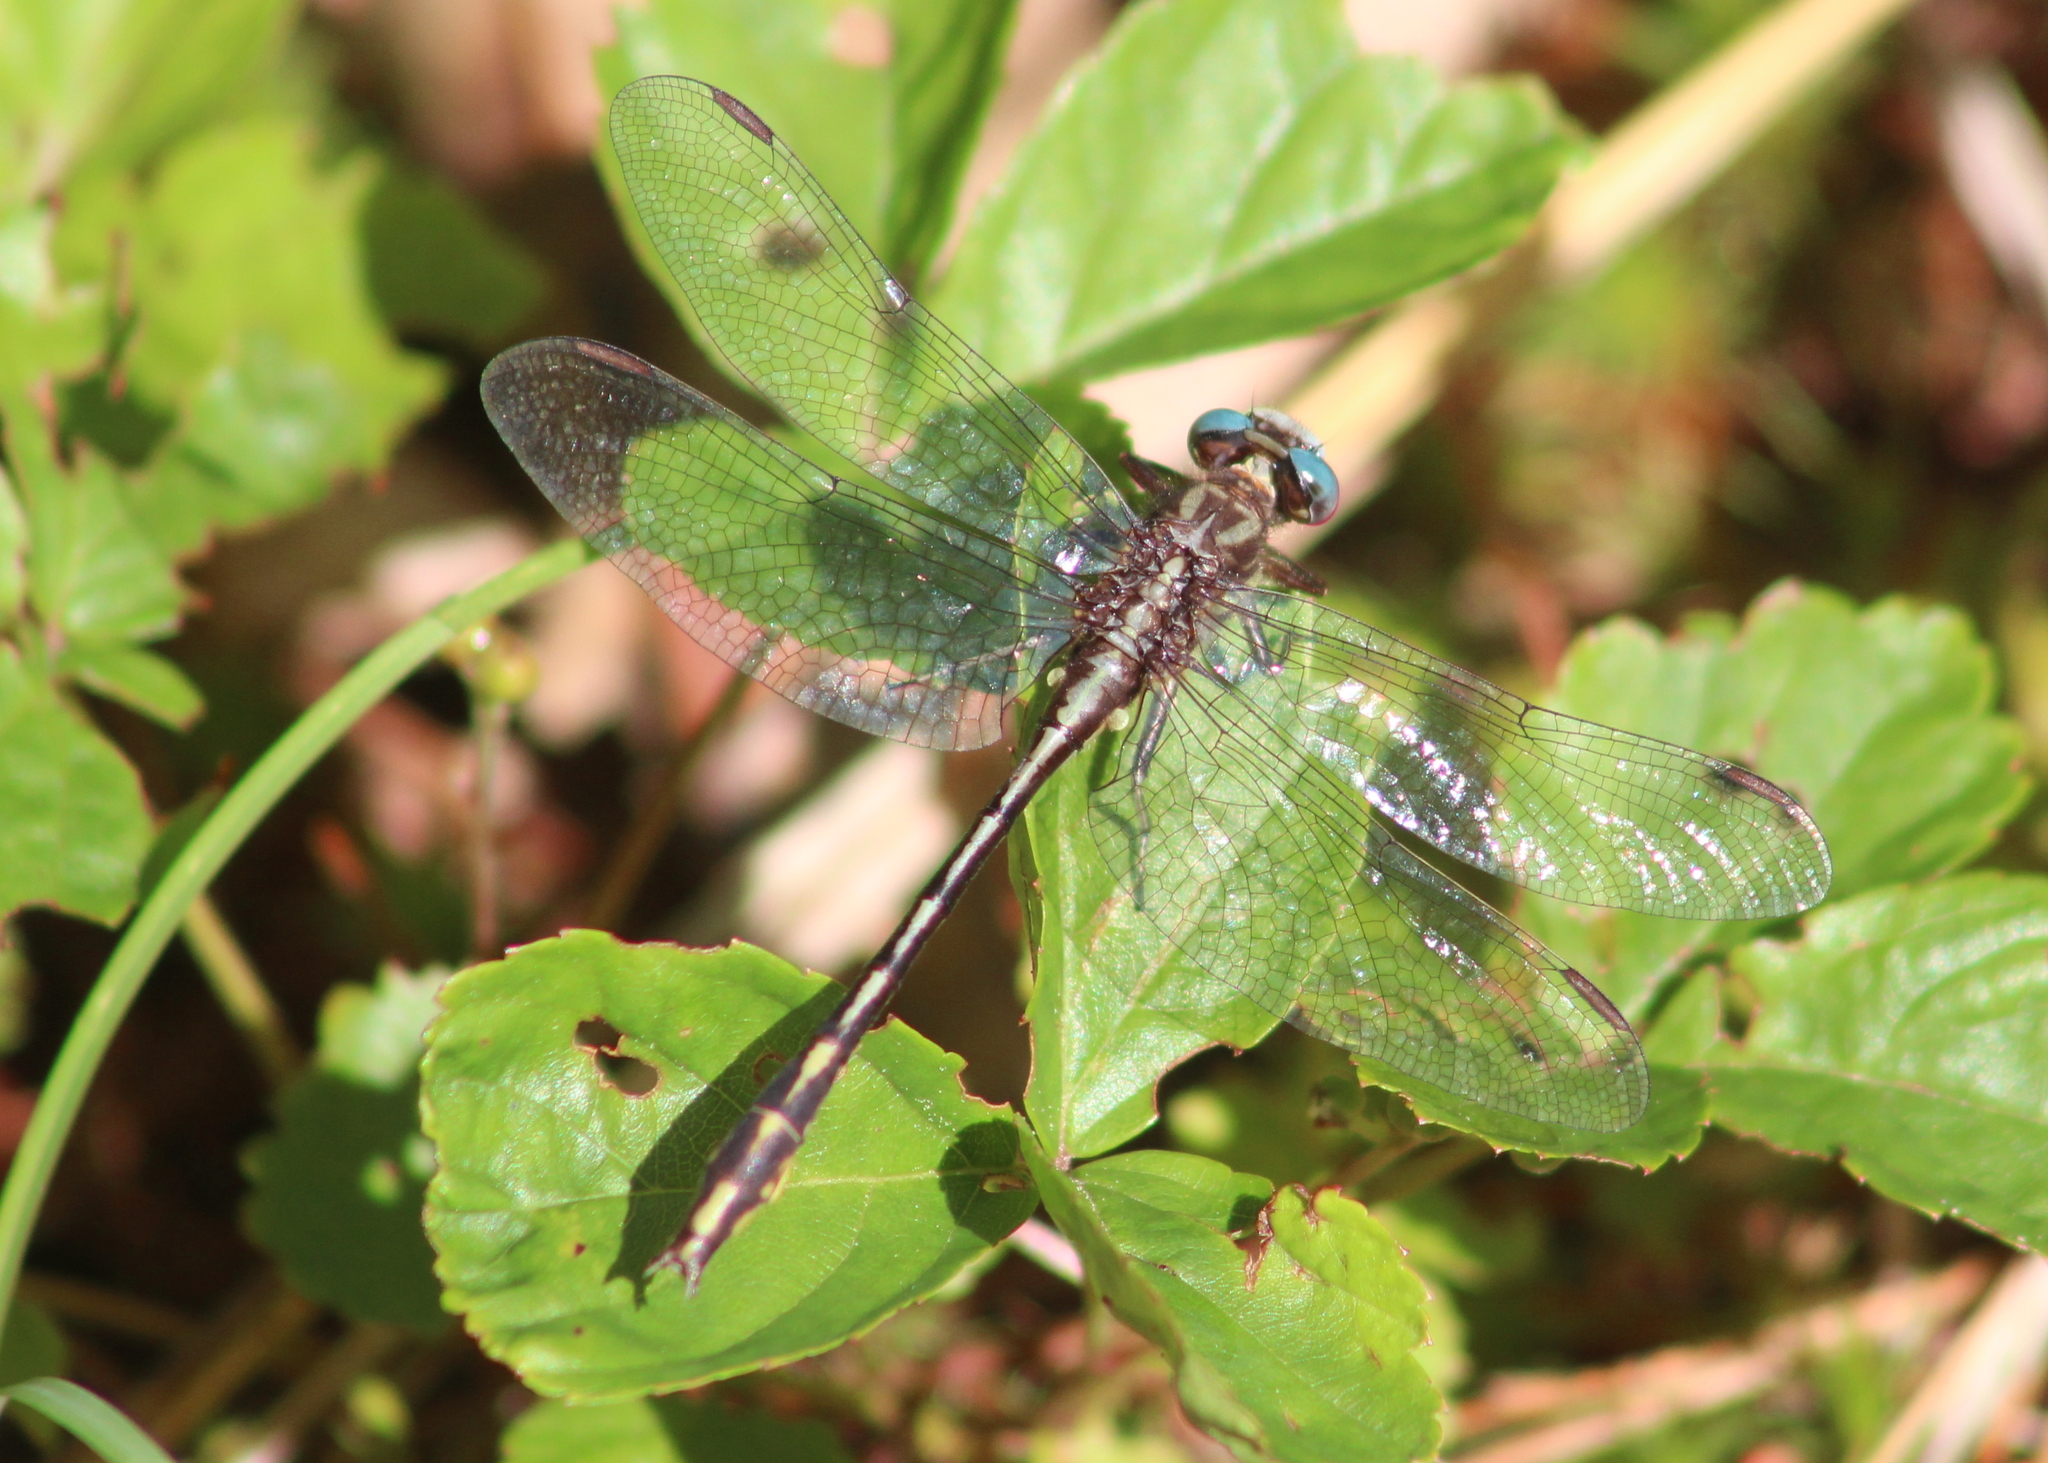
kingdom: Animalia
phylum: Arthropoda
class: Insecta
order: Odonata
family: Gomphidae
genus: Phanogomphus
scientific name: Phanogomphus exilis
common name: Lancet clubtail
